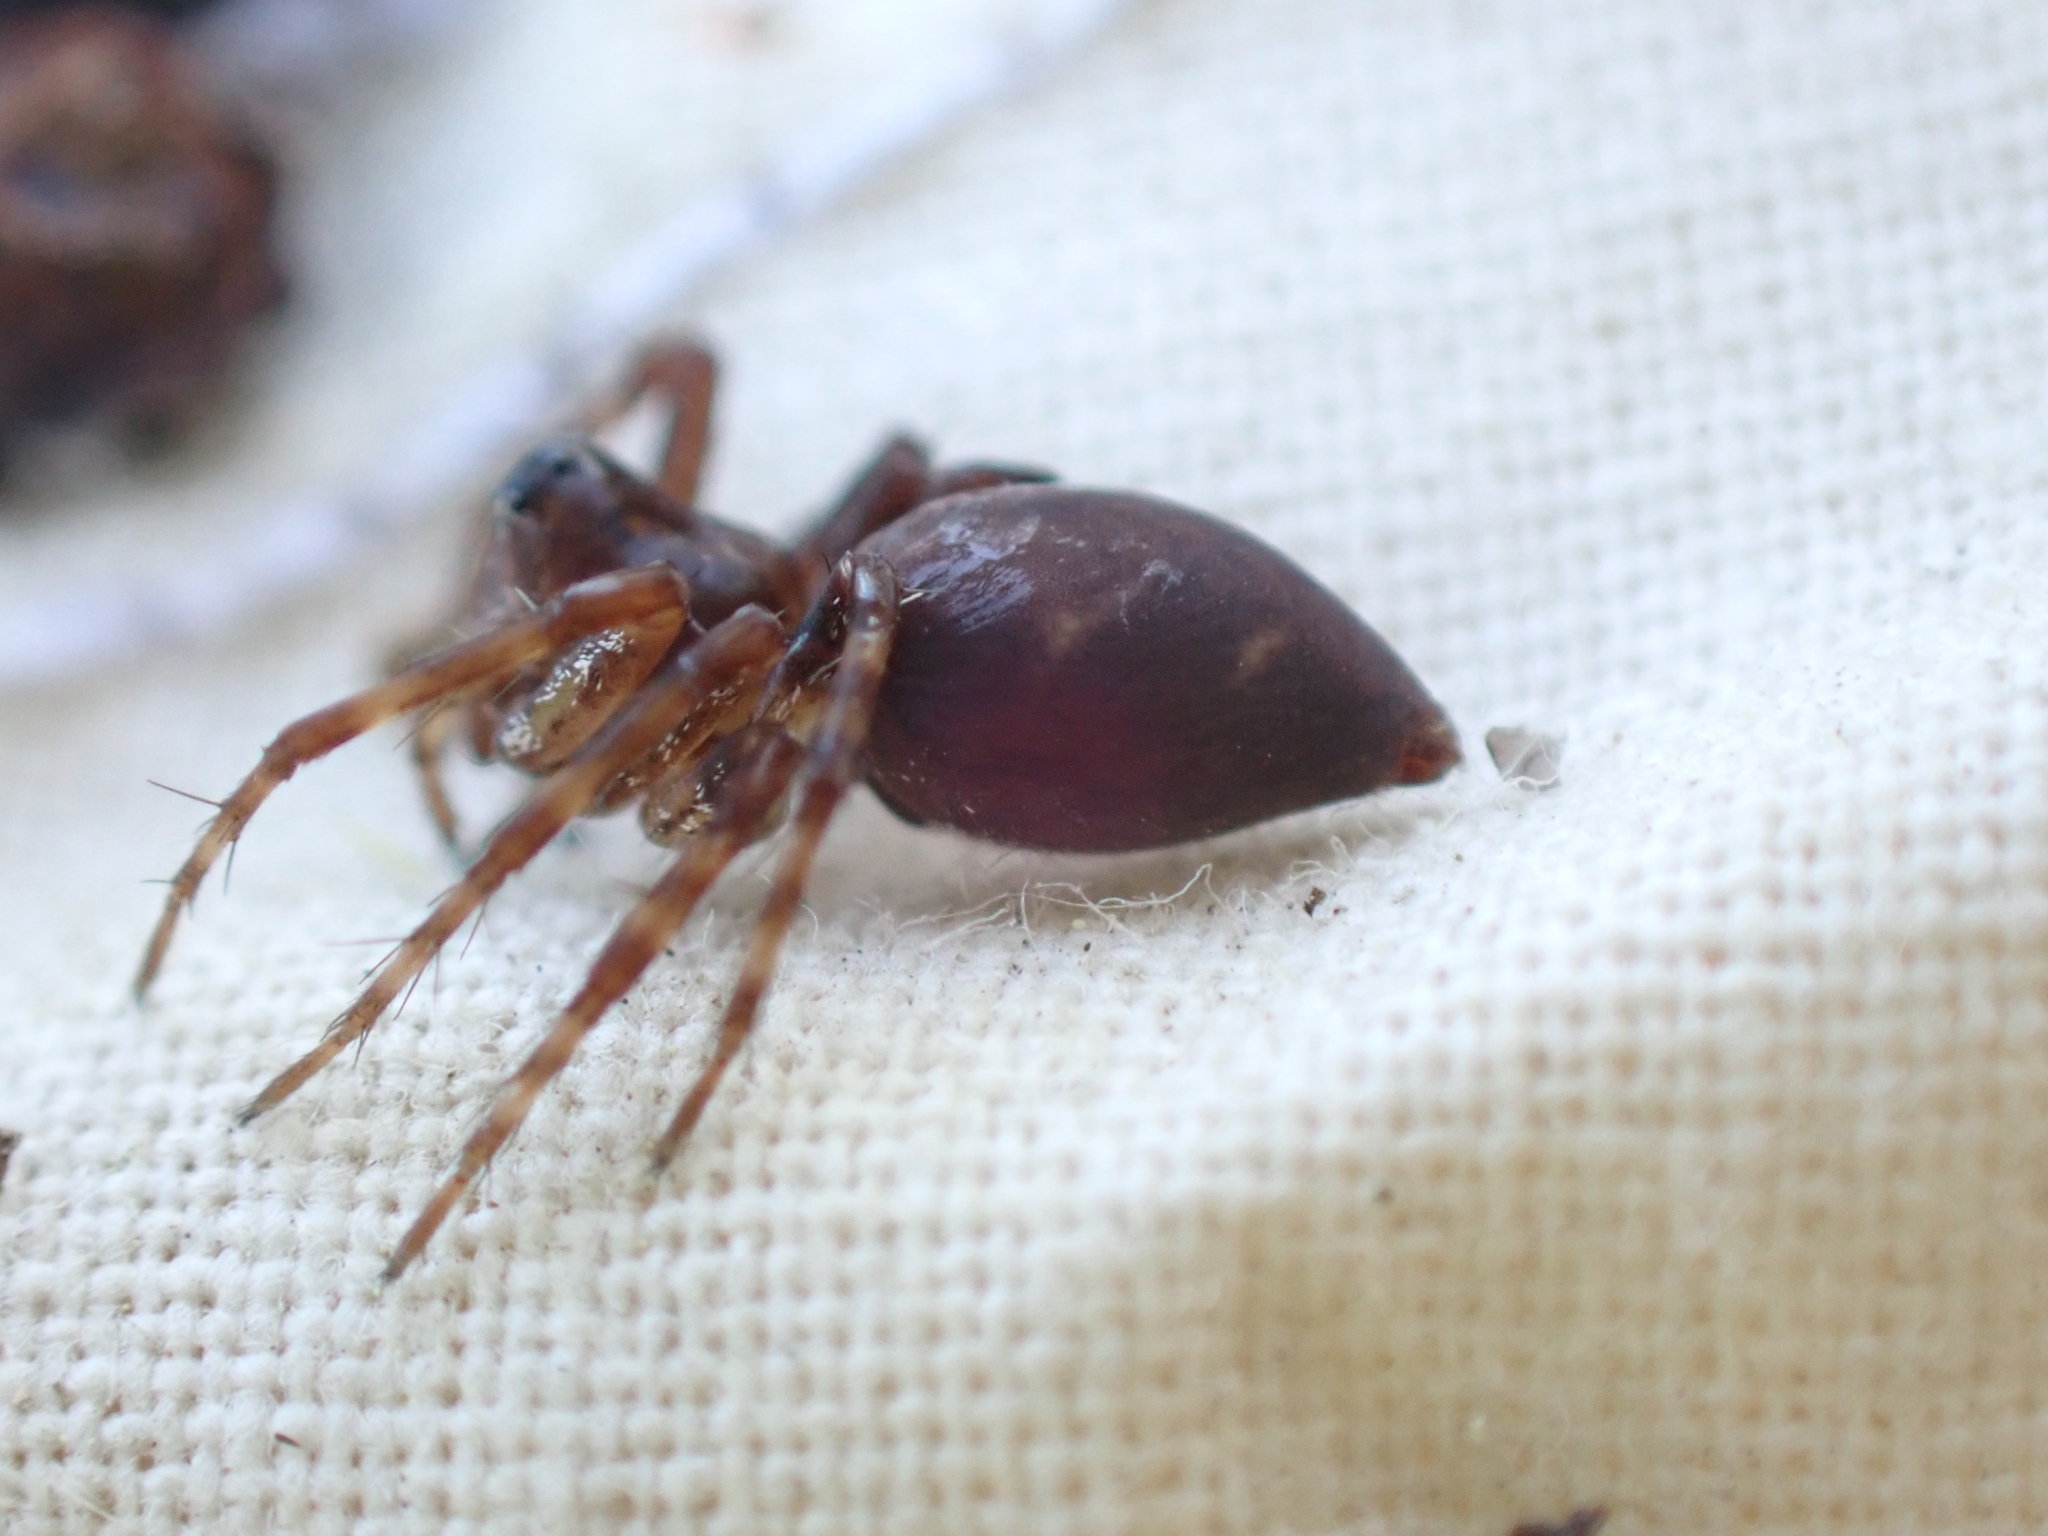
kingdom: Animalia
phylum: Arthropoda
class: Arachnida
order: Araneae
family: Oxyopidae
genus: Oxyopes
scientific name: Oxyopes scalaris
